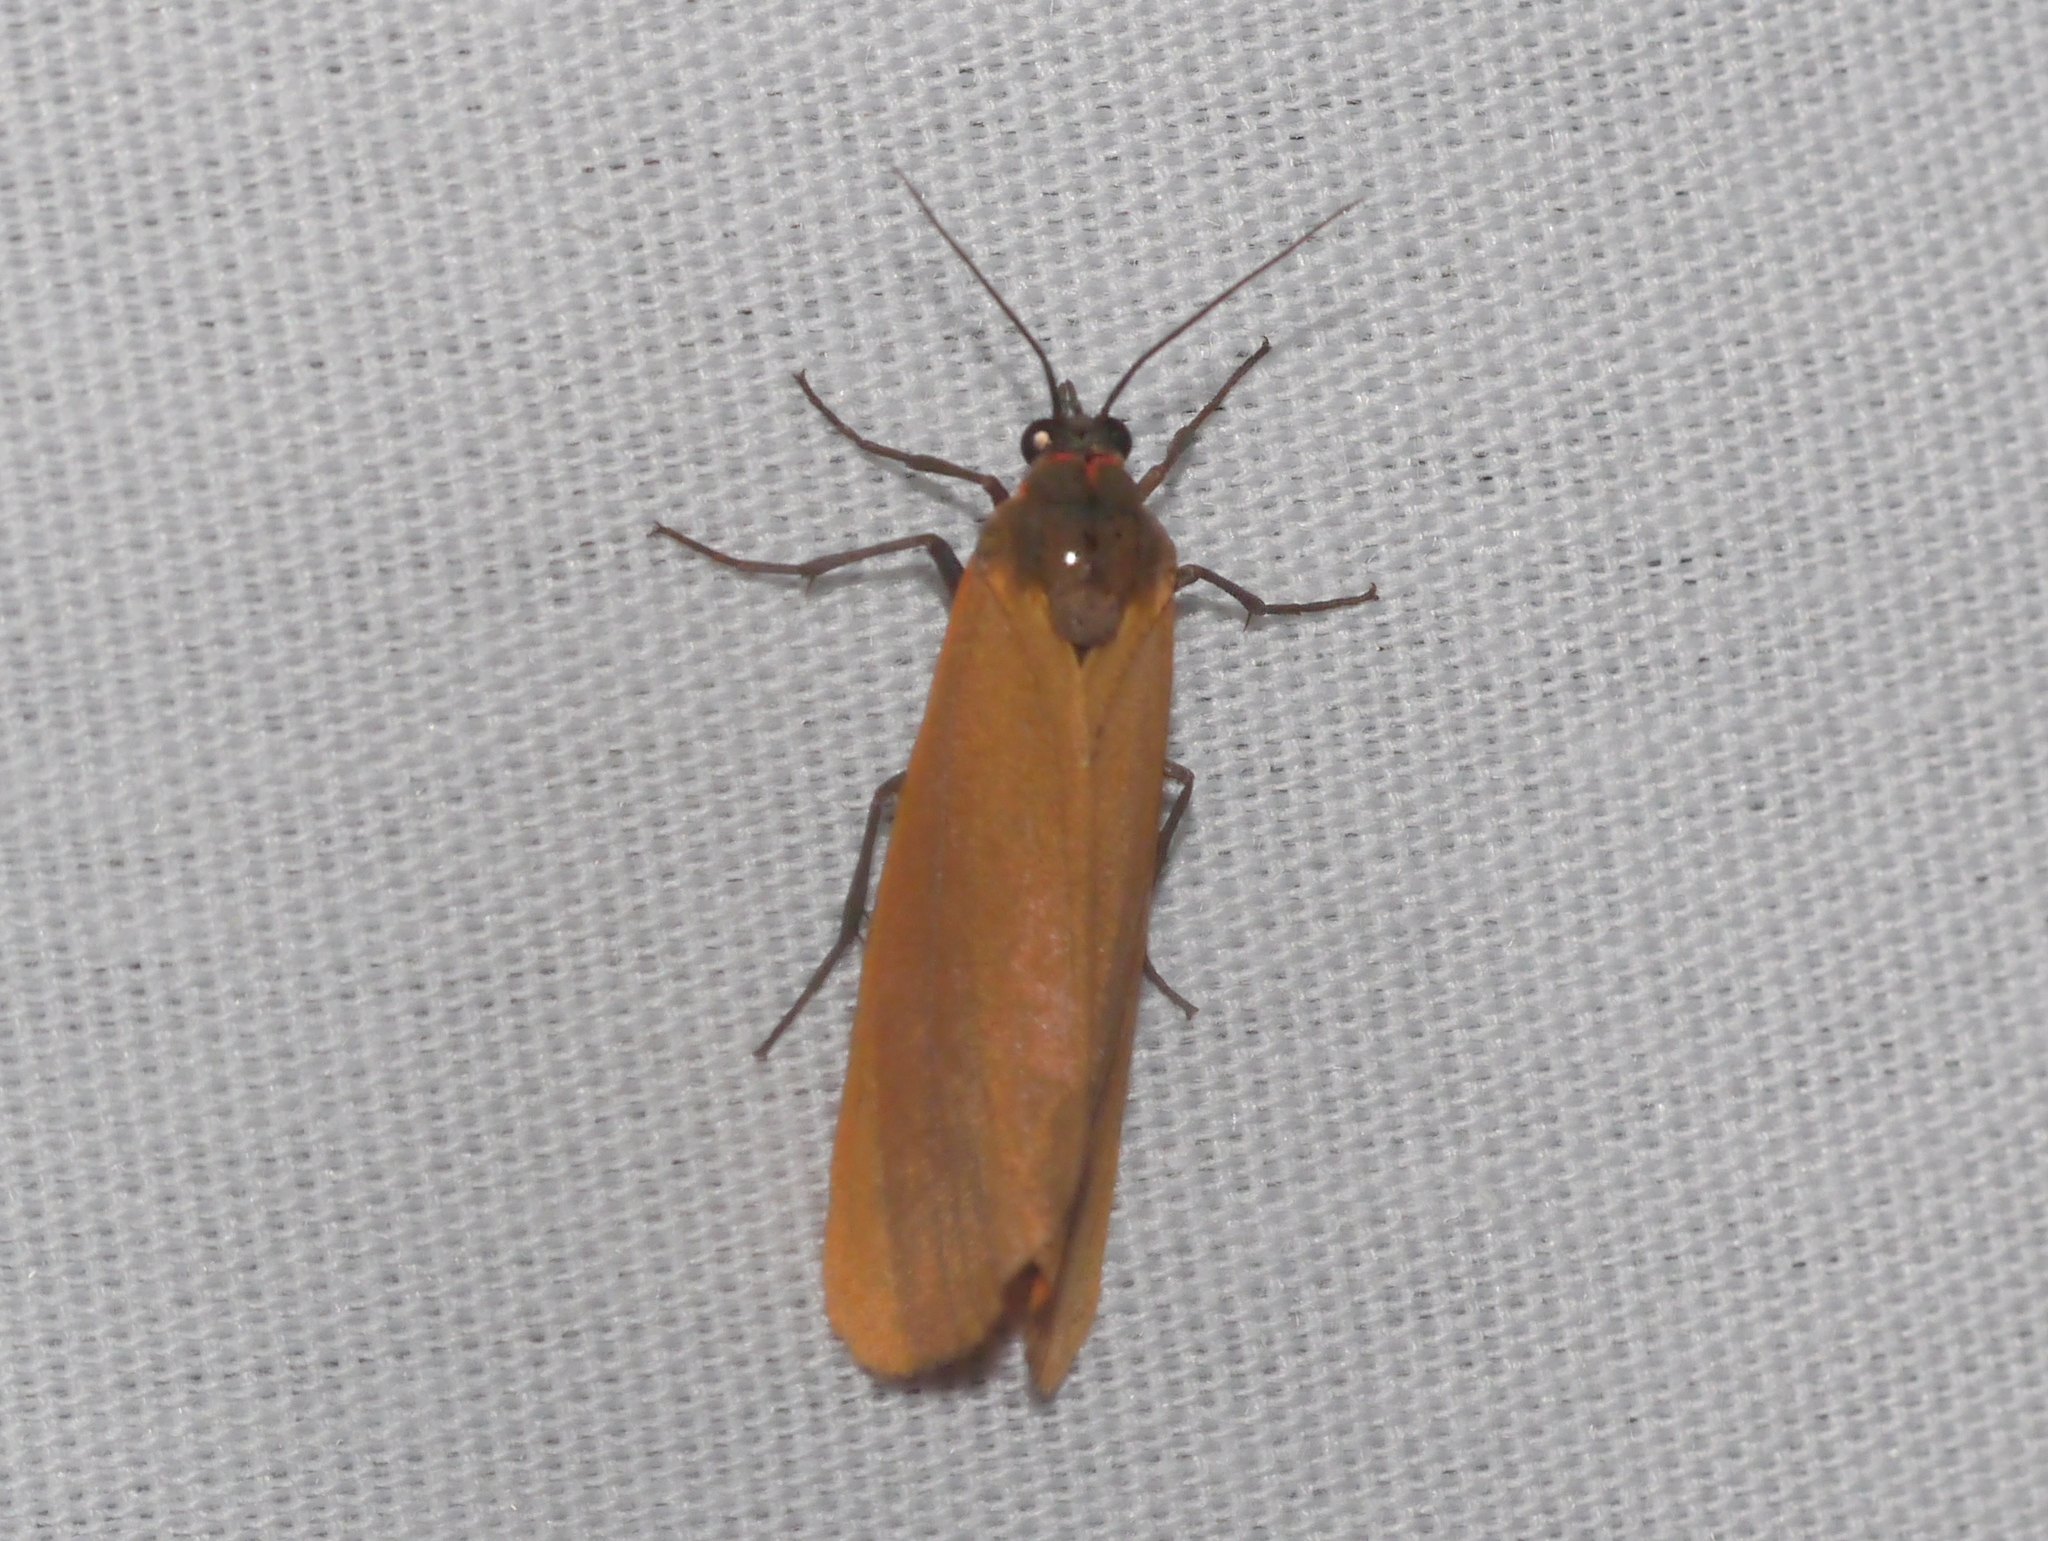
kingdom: Animalia
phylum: Arthropoda
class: Insecta
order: Lepidoptera
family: Erebidae
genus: Virbia
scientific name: Virbia ostenta
